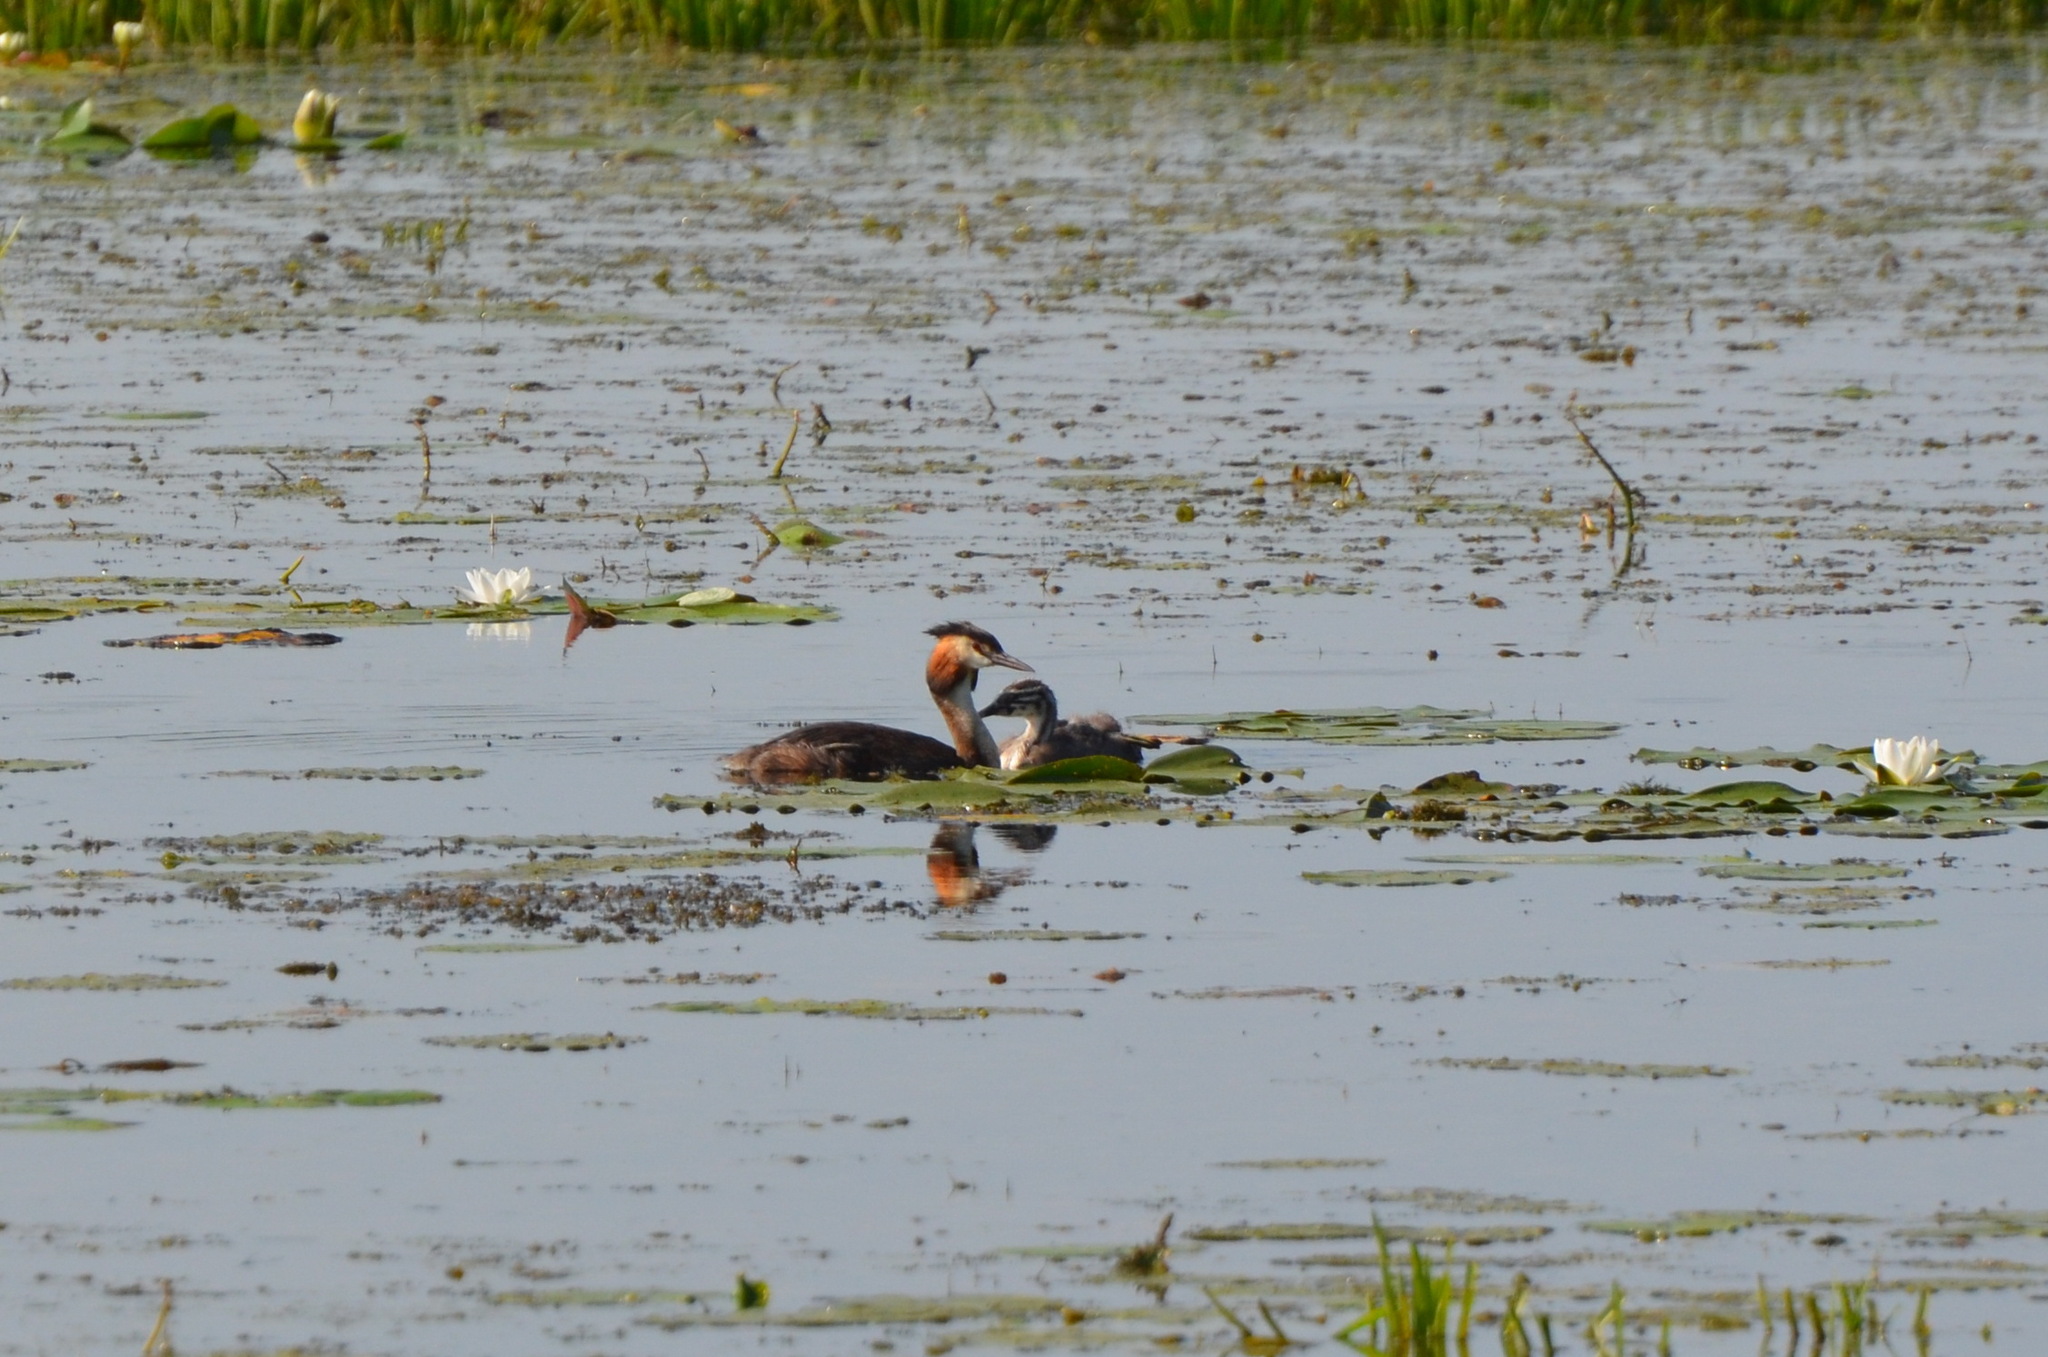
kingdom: Animalia
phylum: Chordata
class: Aves
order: Podicipediformes
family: Podicipedidae
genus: Podiceps
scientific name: Podiceps cristatus
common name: Great crested grebe
